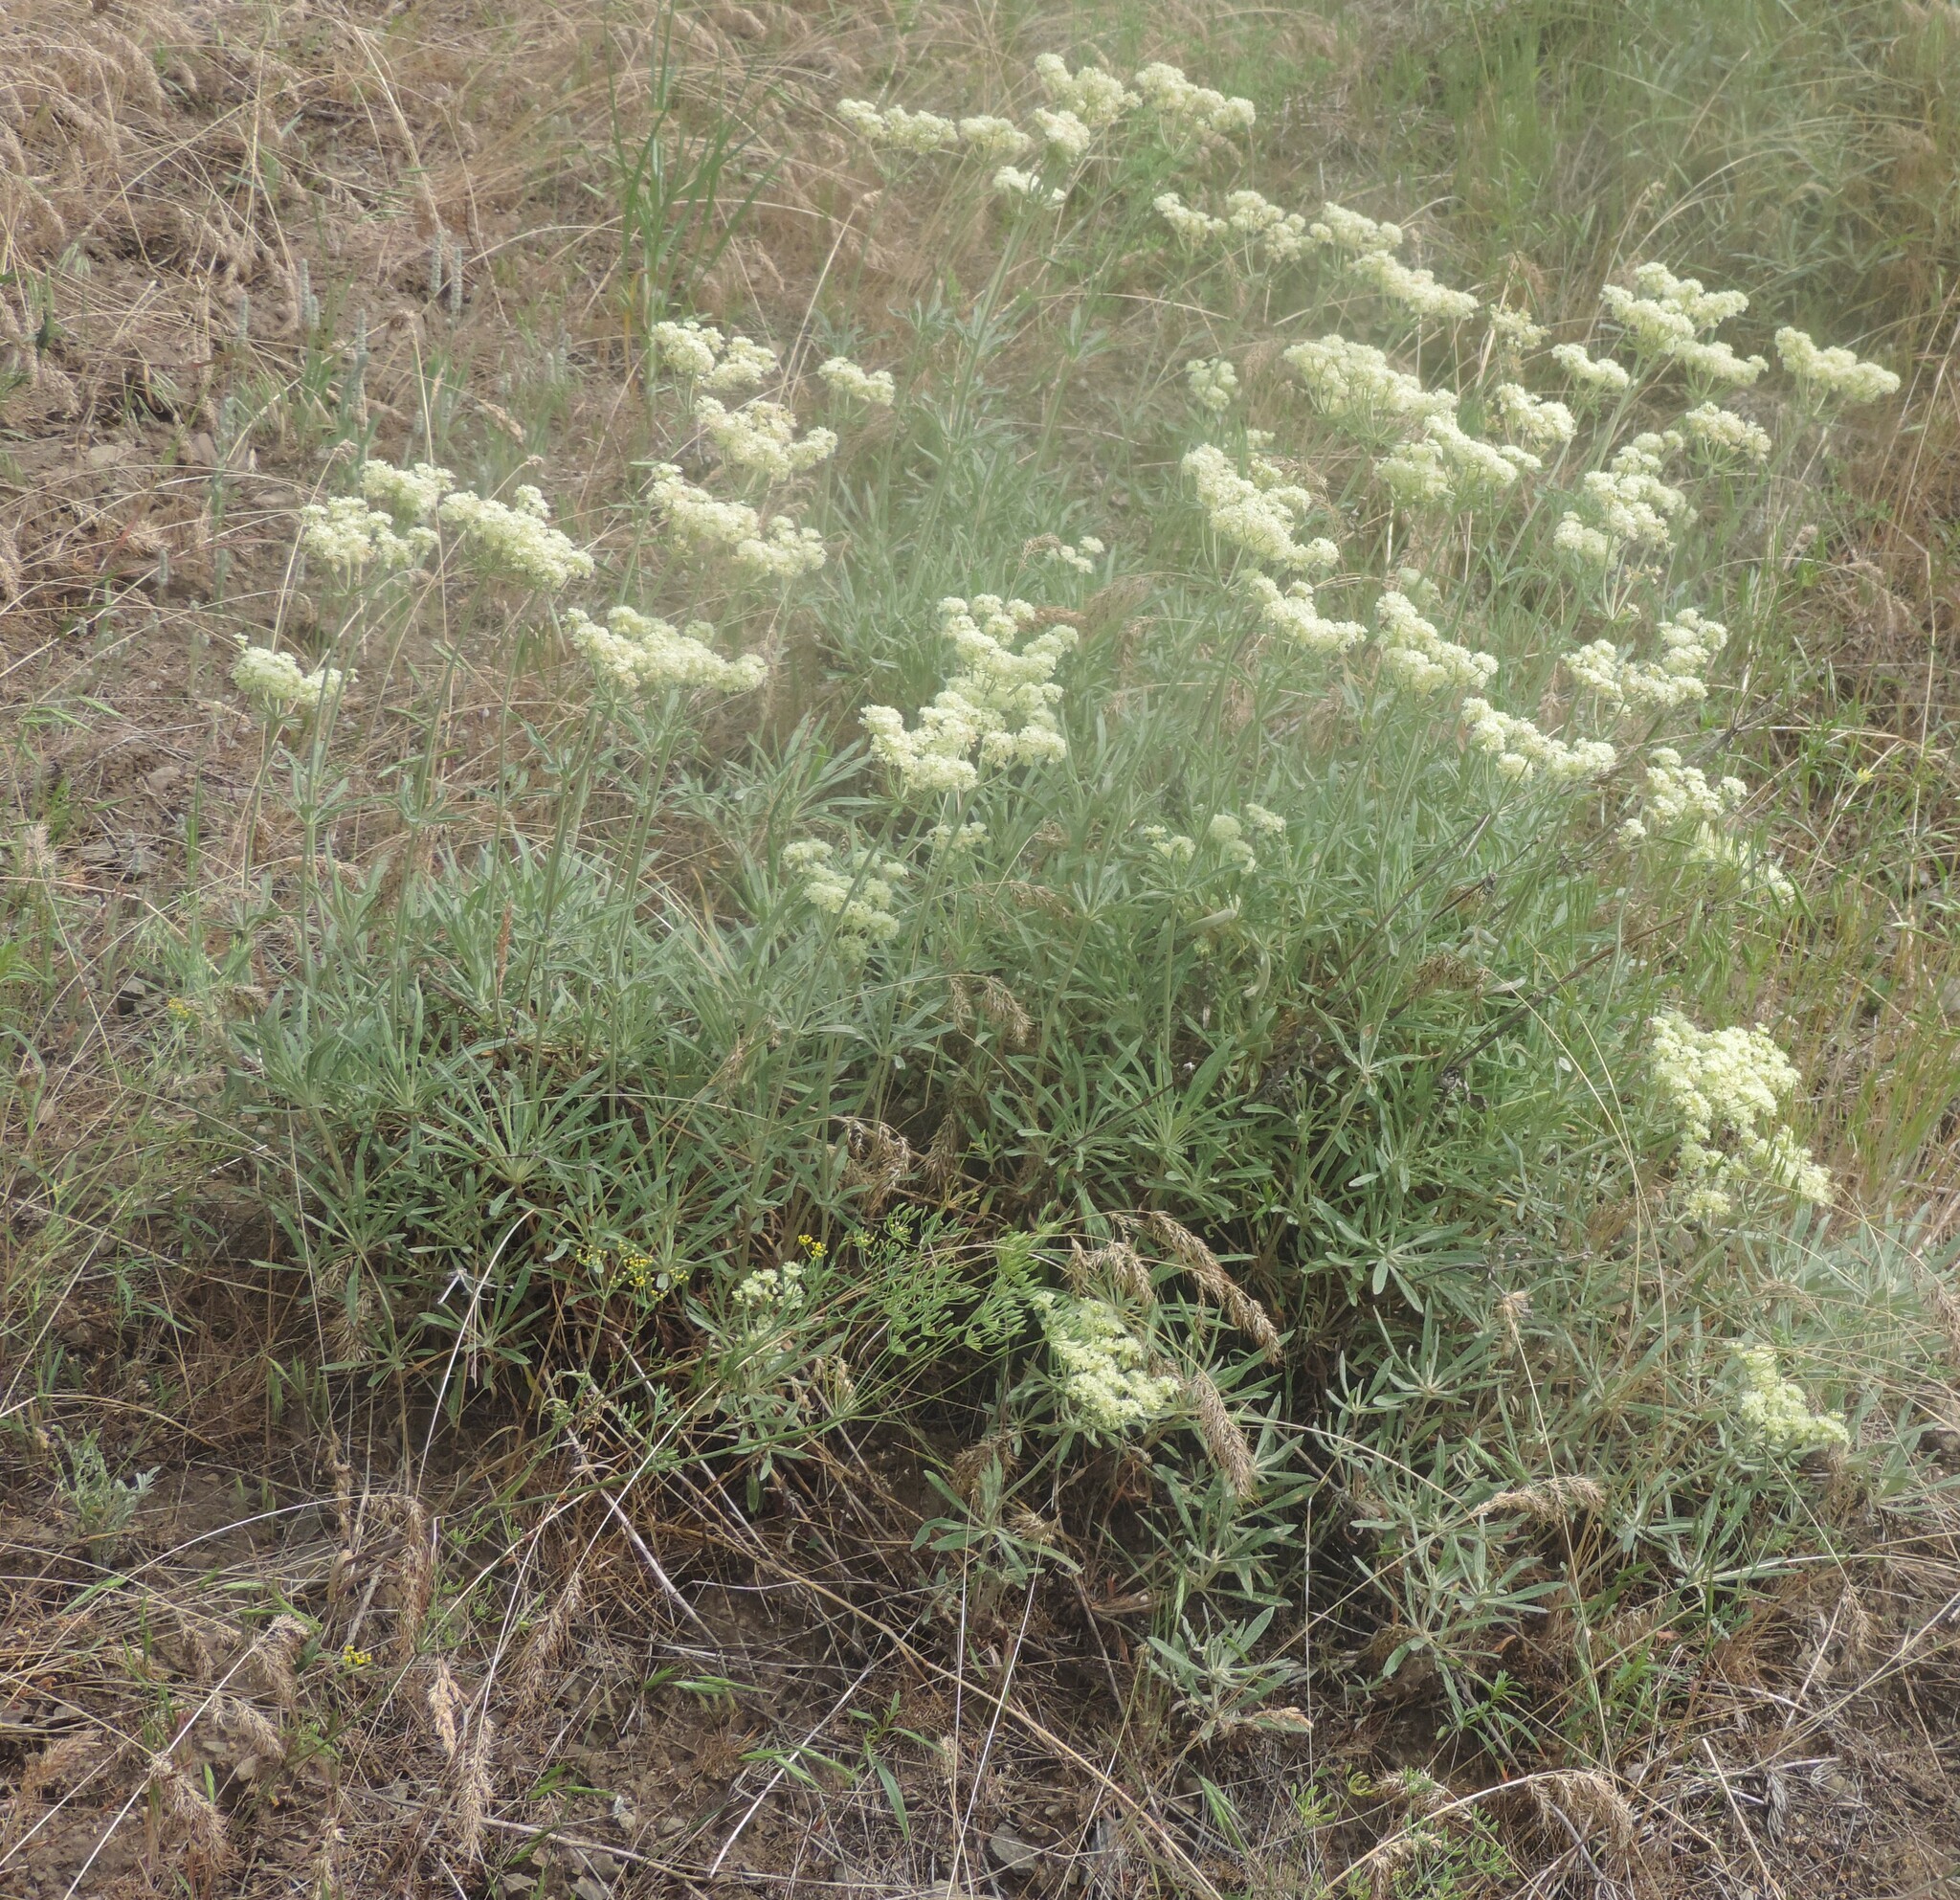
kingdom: Plantae
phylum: Tracheophyta
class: Magnoliopsida
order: Caryophyllales
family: Polygonaceae
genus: Eriogonum
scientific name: Eriogonum heracleoides
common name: Wyeth's buckwheat
